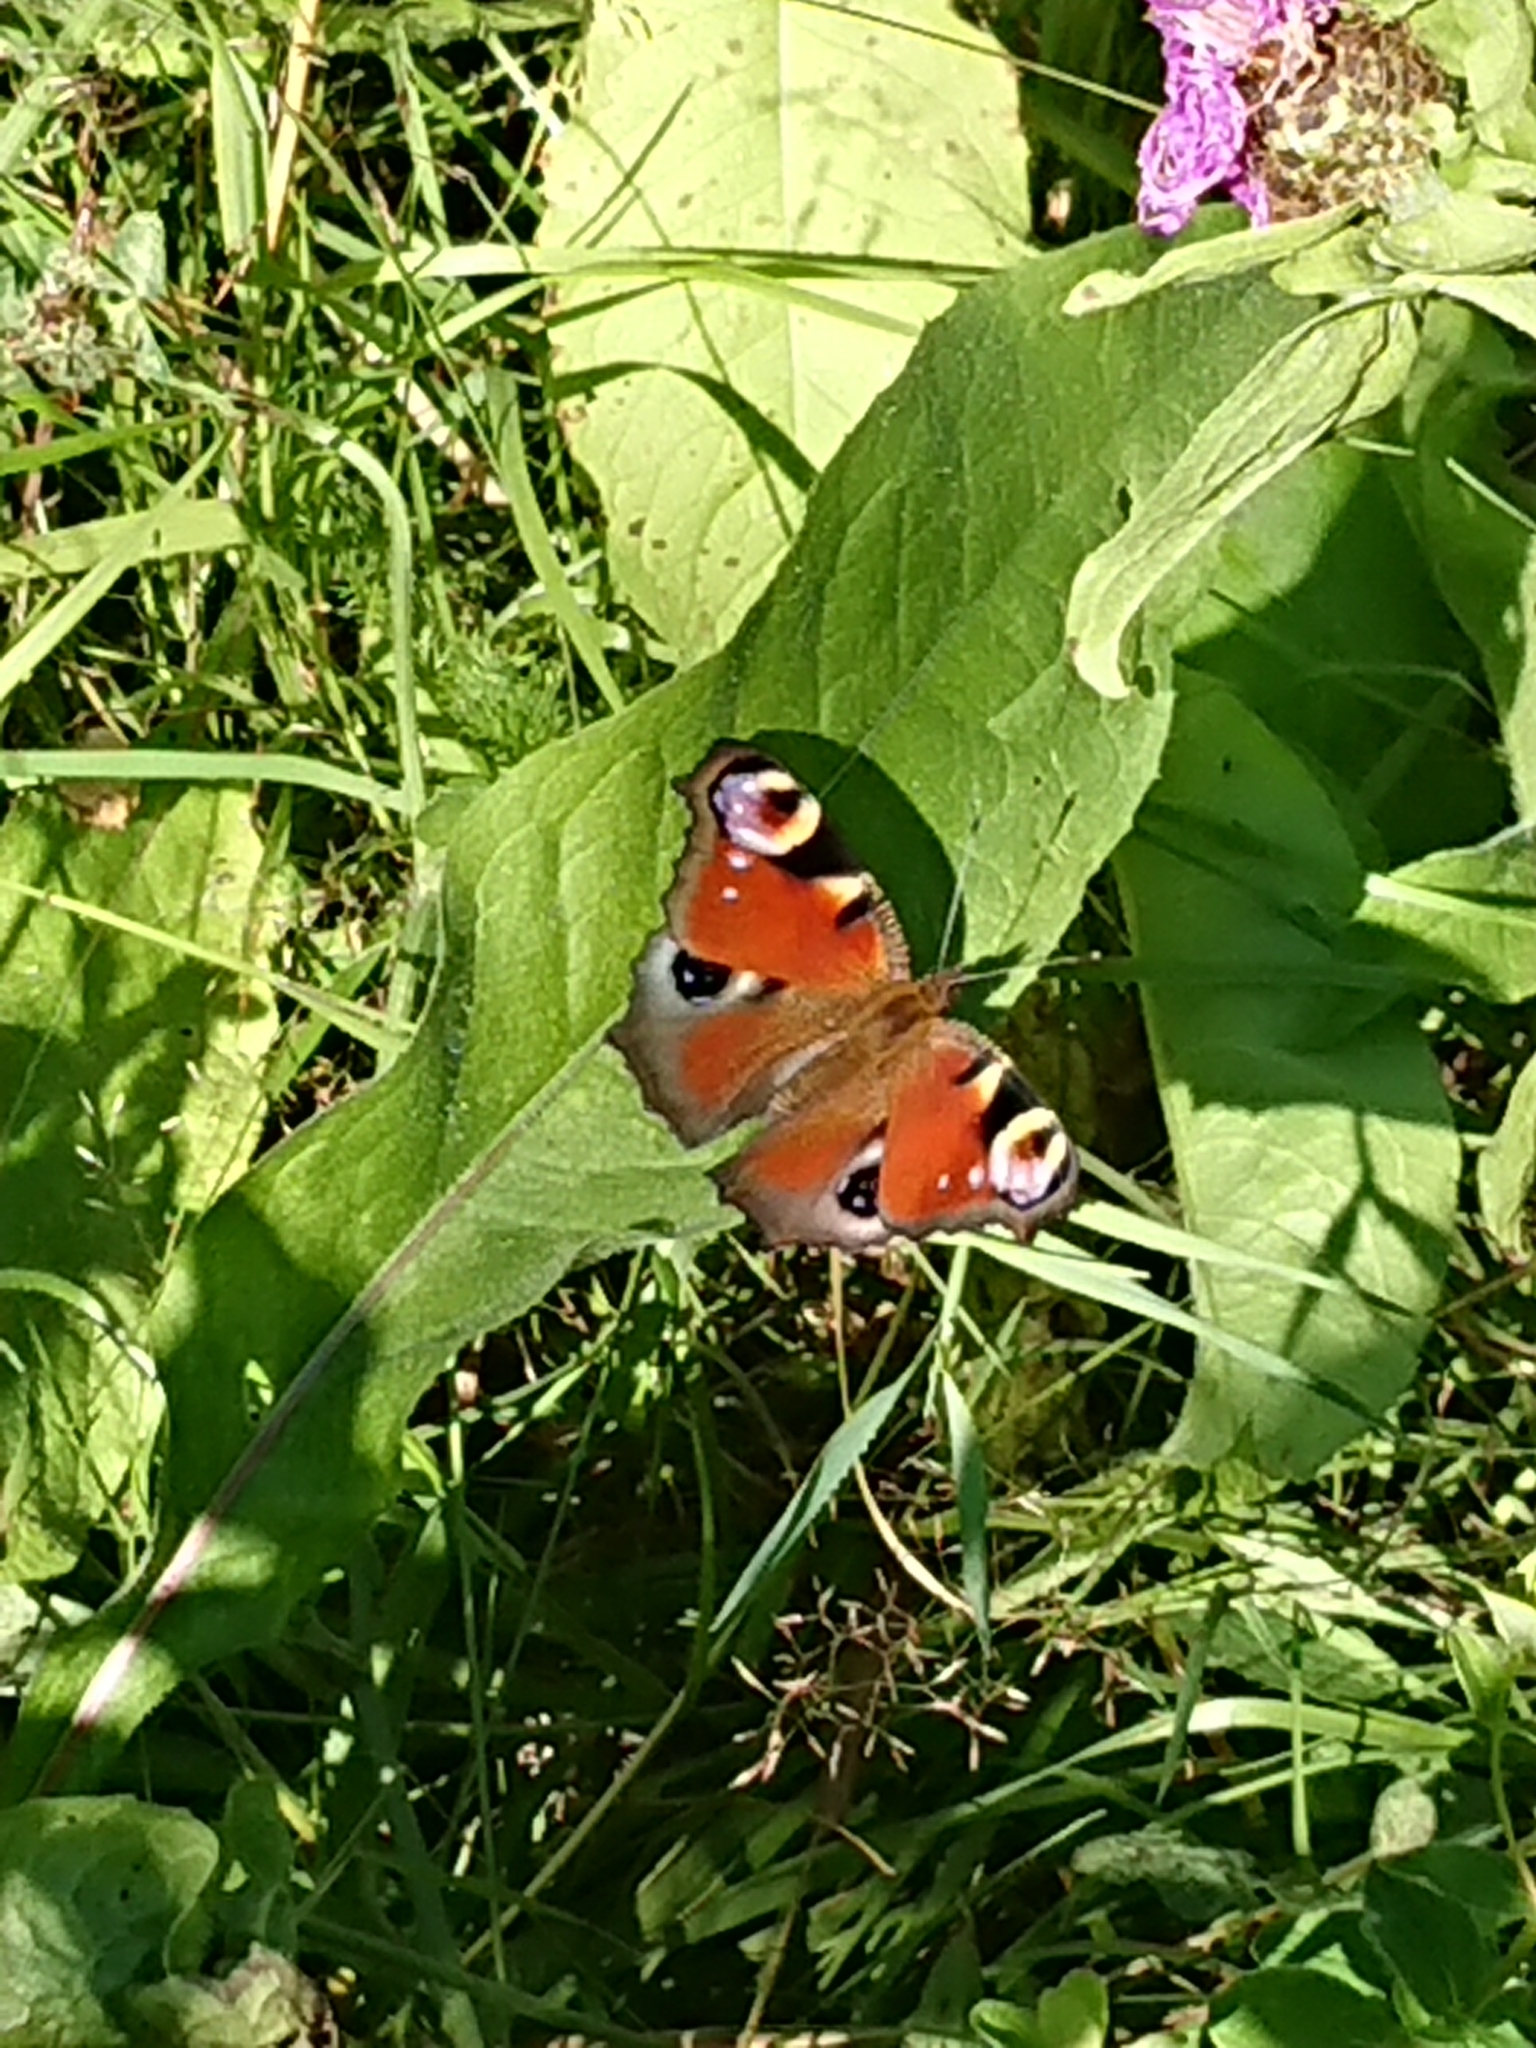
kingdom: Animalia
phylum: Arthropoda
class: Insecta
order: Lepidoptera
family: Nymphalidae
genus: Aglais
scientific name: Aglais io
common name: Peacock
